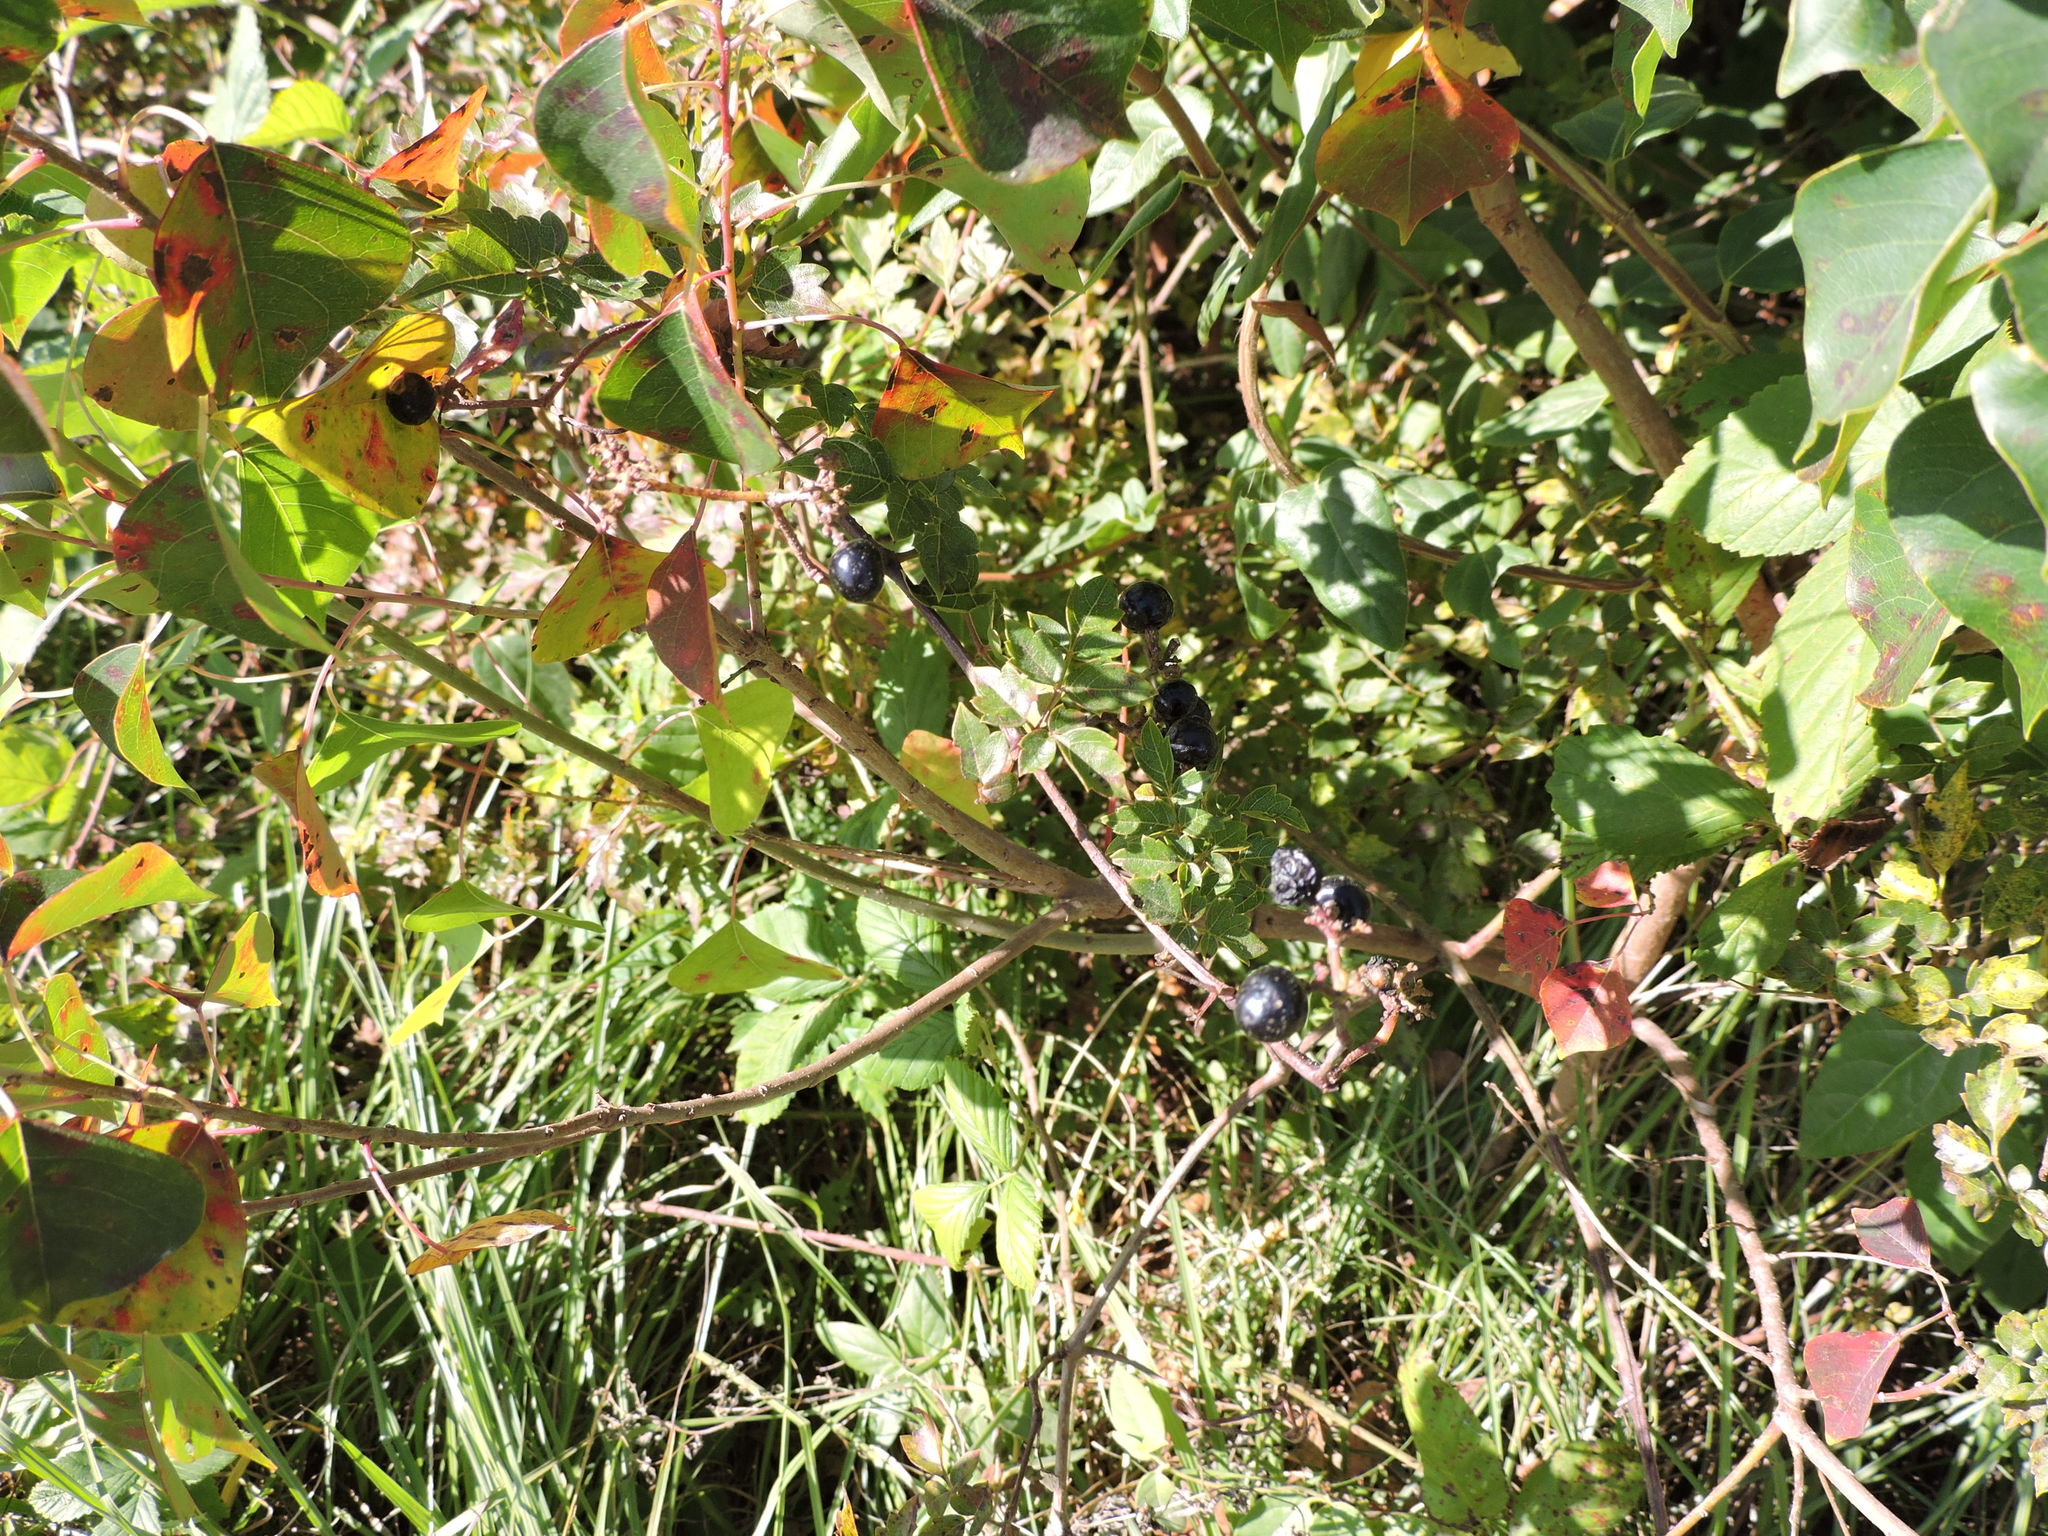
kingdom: Plantae
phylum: Tracheophyta
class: Magnoliopsida
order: Vitales
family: Vitaceae
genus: Nekemias
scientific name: Nekemias arborea
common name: Peppervine
